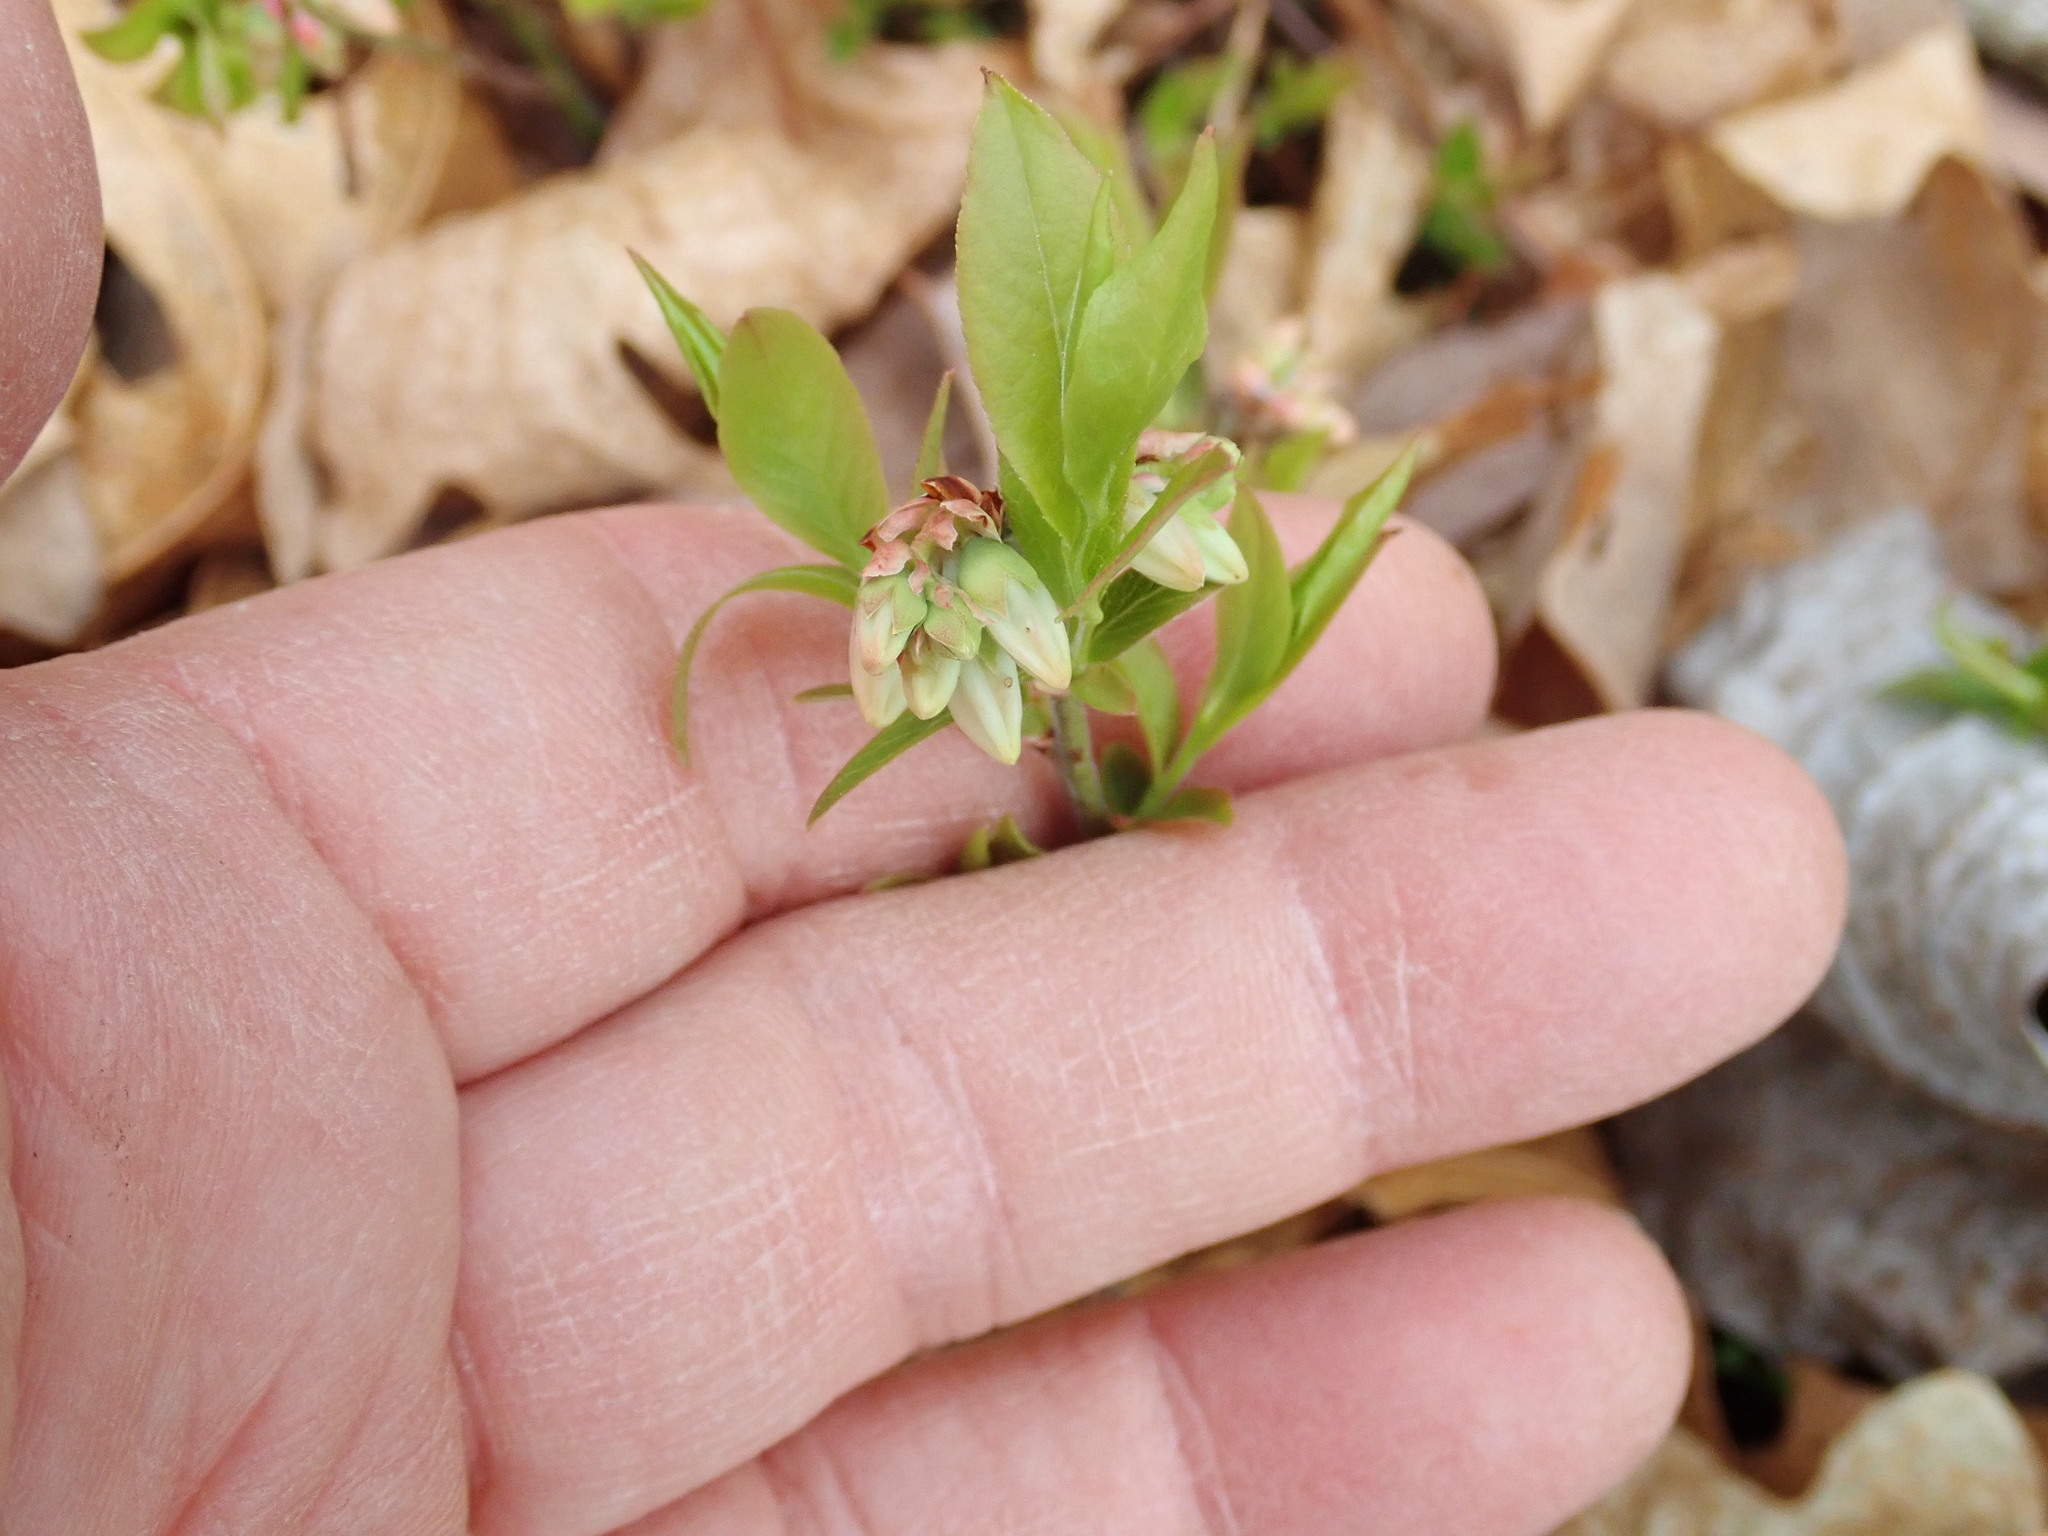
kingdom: Plantae
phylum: Tracheophyta
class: Magnoliopsida
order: Ericales
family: Ericaceae
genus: Vaccinium
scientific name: Vaccinium angustifolium
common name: Early lowbush blueberry
